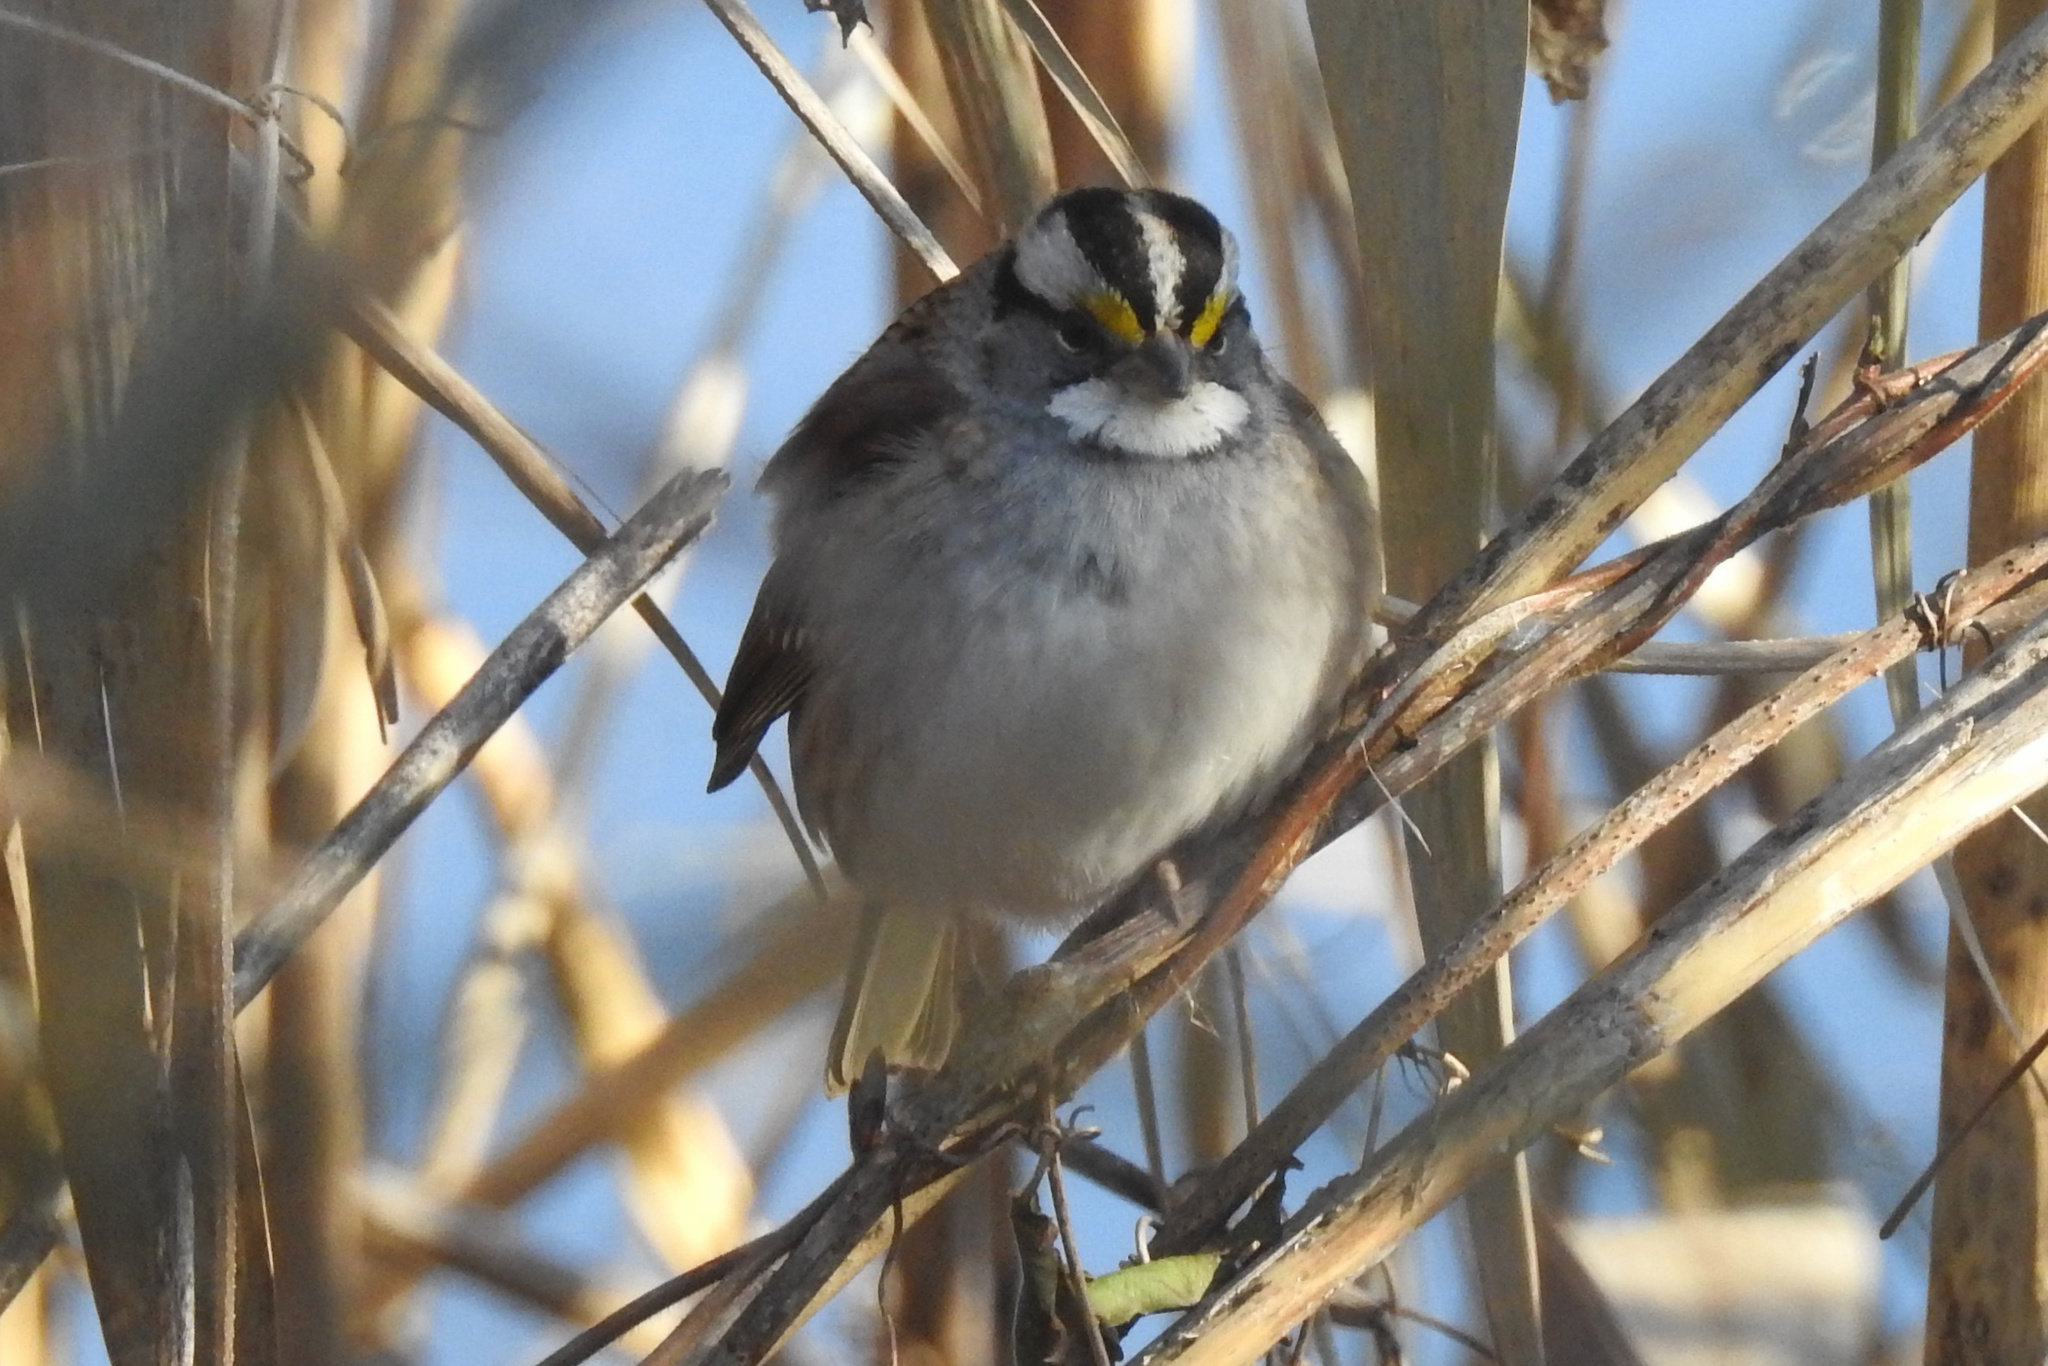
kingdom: Animalia
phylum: Chordata
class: Aves
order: Passeriformes
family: Passerellidae
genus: Zonotrichia
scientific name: Zonotrichia albicollis
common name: White-throated sparrow
